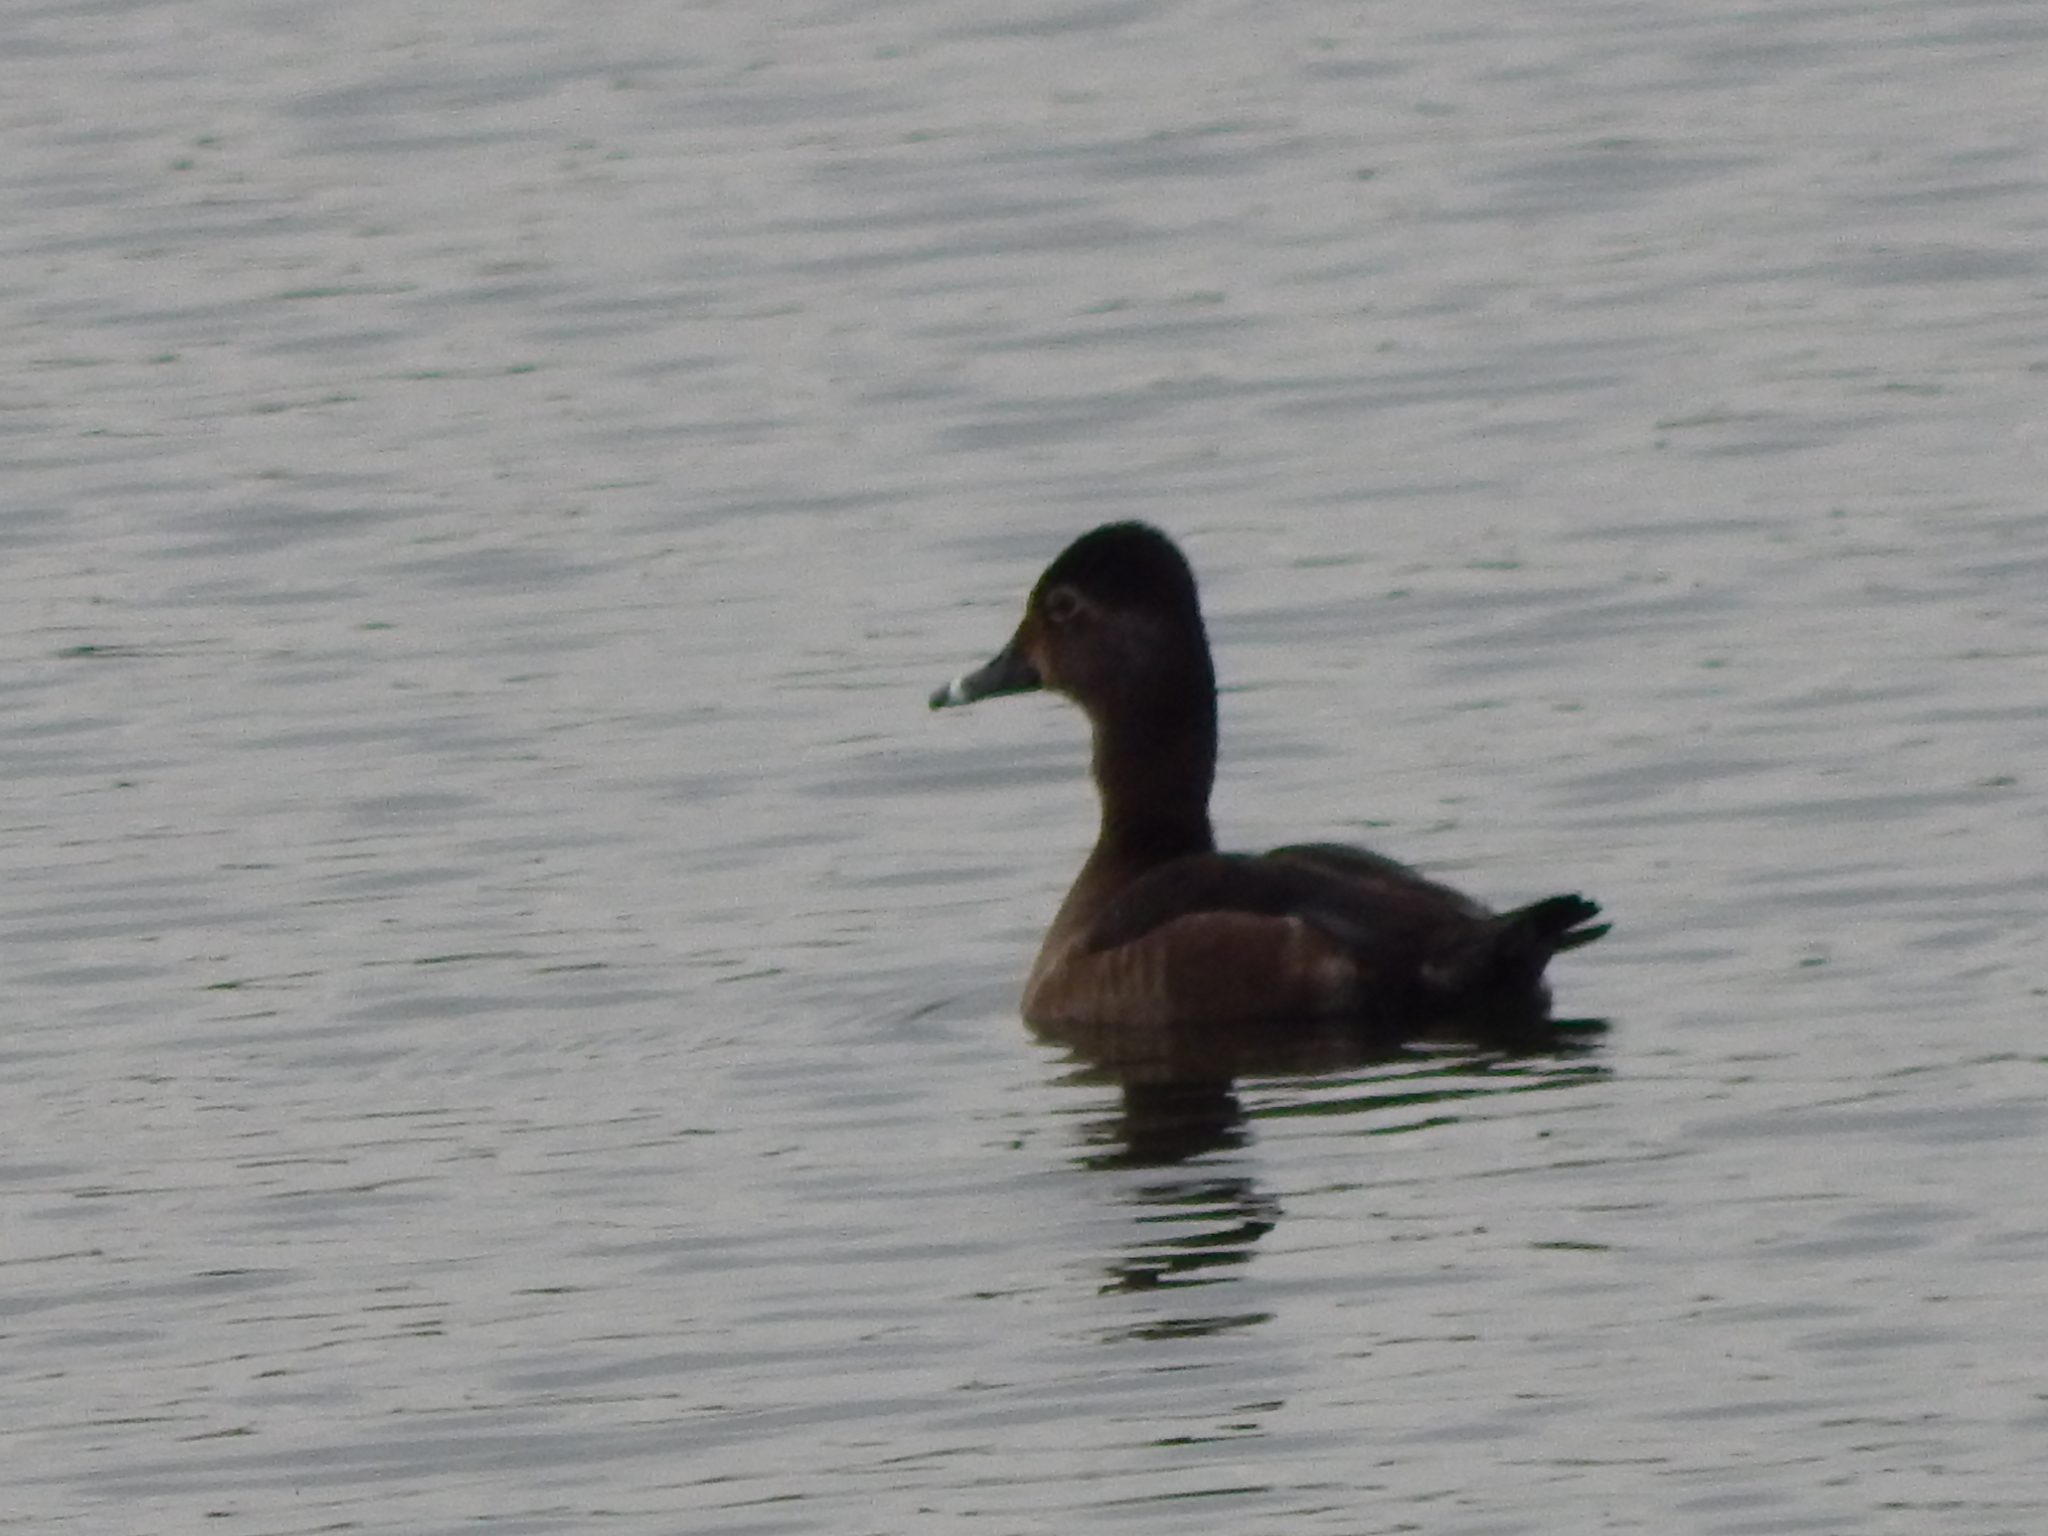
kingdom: Animalia
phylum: Chordata
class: Aves
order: Anseriformes
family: Anatidae
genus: Aythya
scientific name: Aythya collaris
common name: Ring-necked duck
